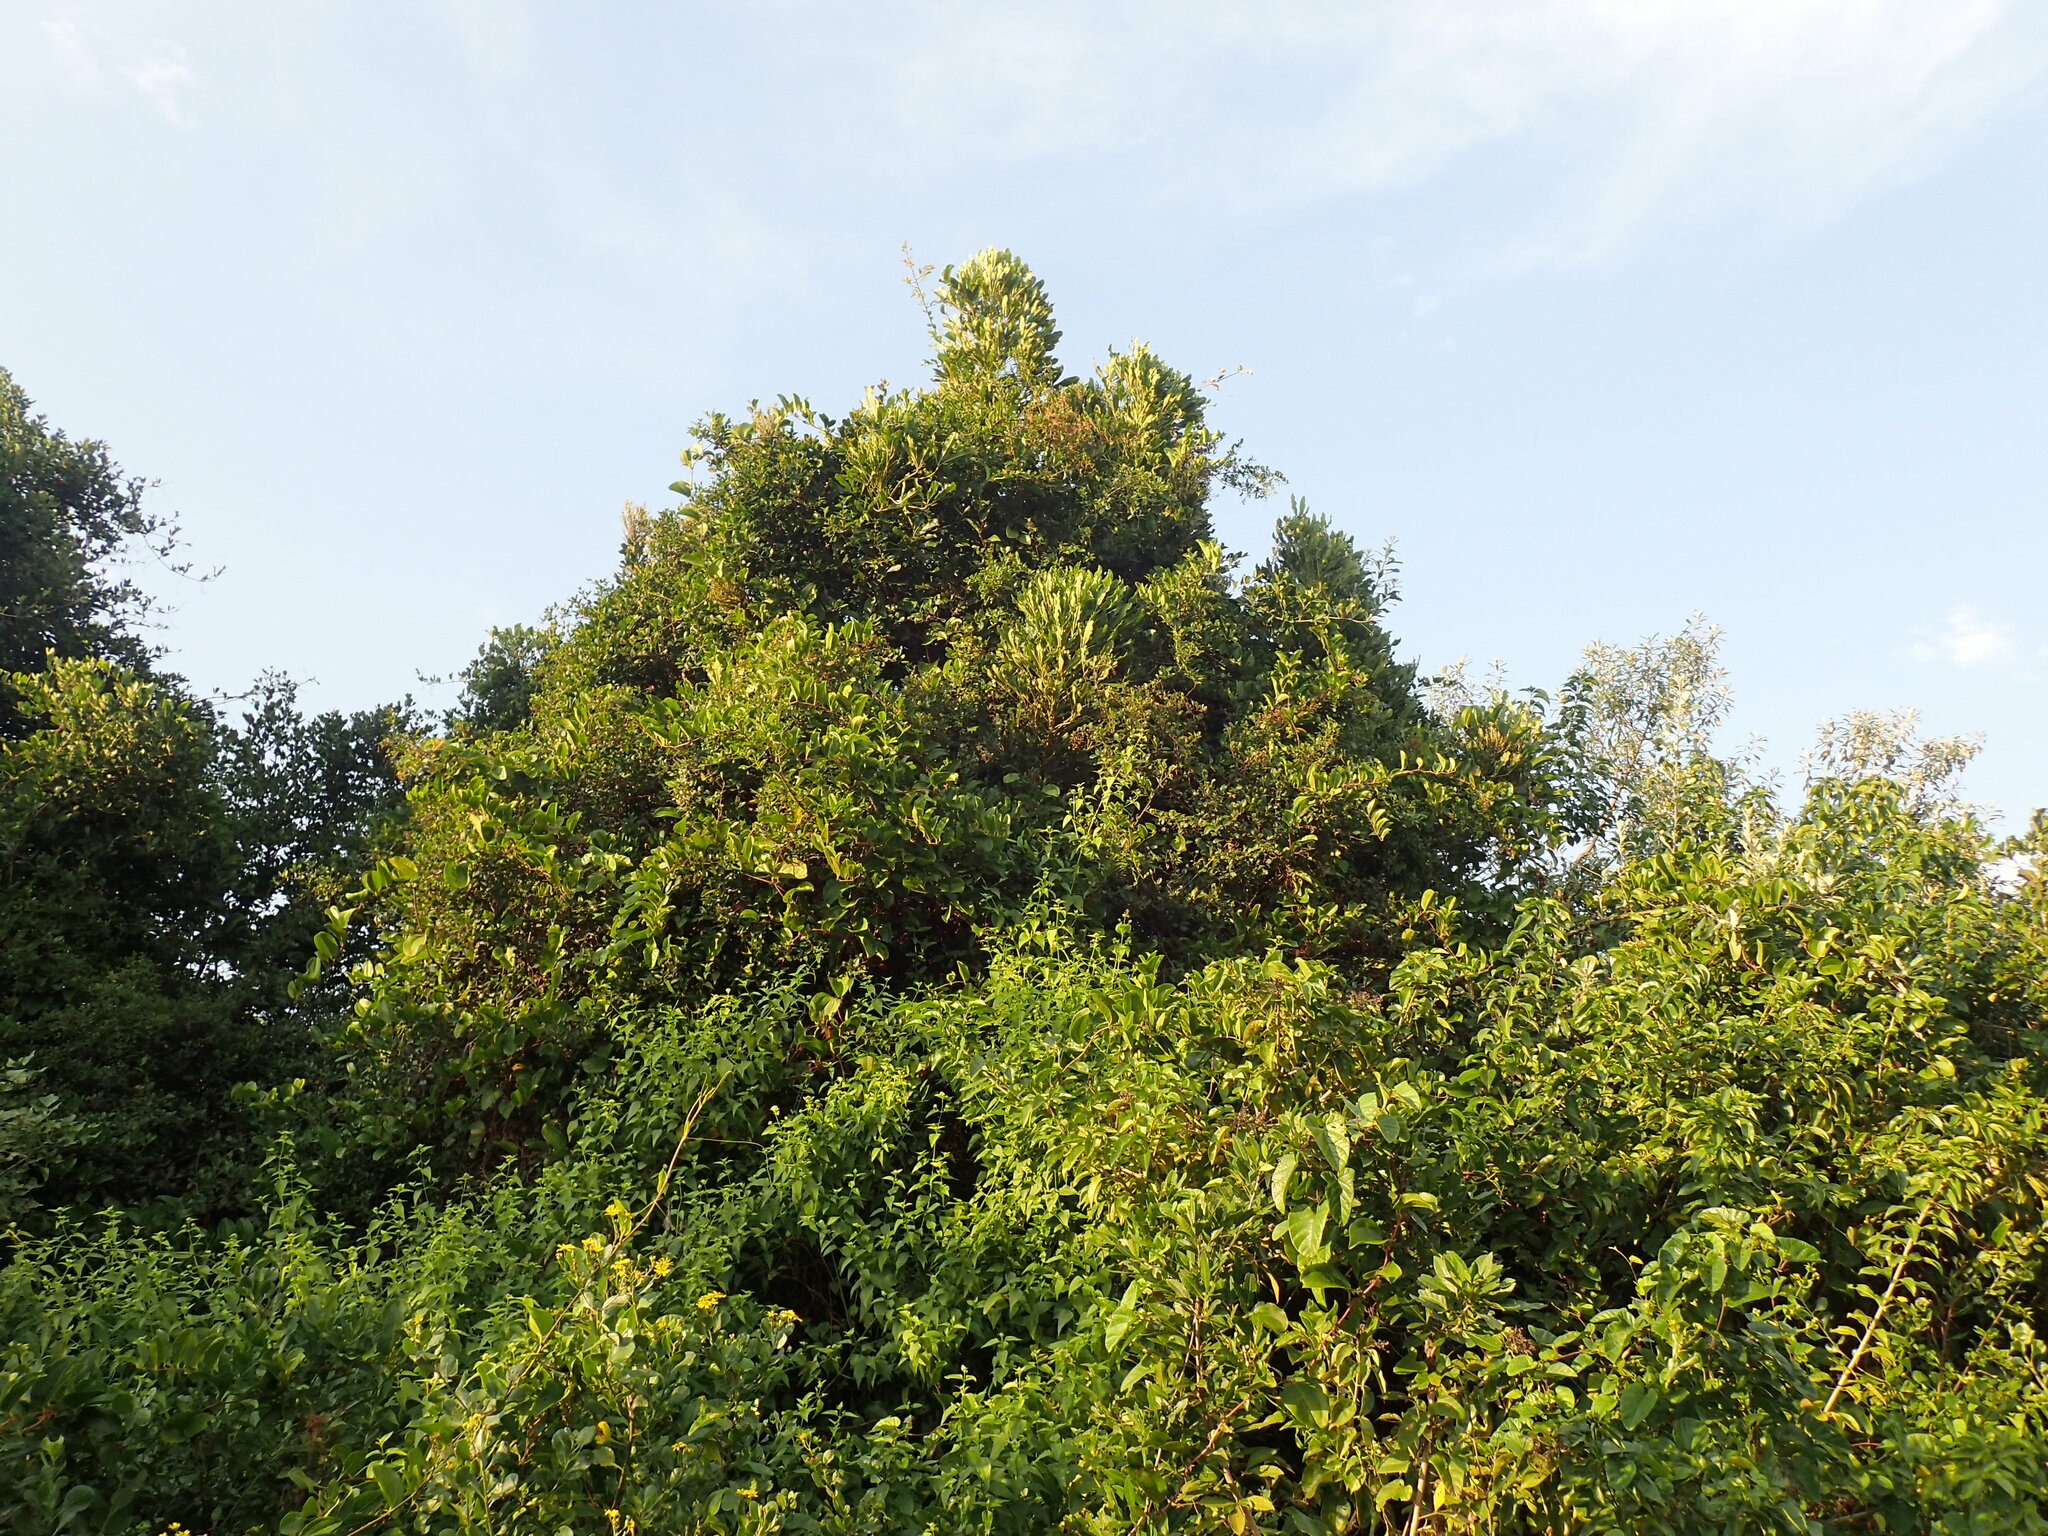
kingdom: Plantae
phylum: Tracheophyta
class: Magnoliopsida
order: Apiales
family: Araliaceae
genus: Neocussonia
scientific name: Neocussonia umbellifera
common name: False cabbage tree
